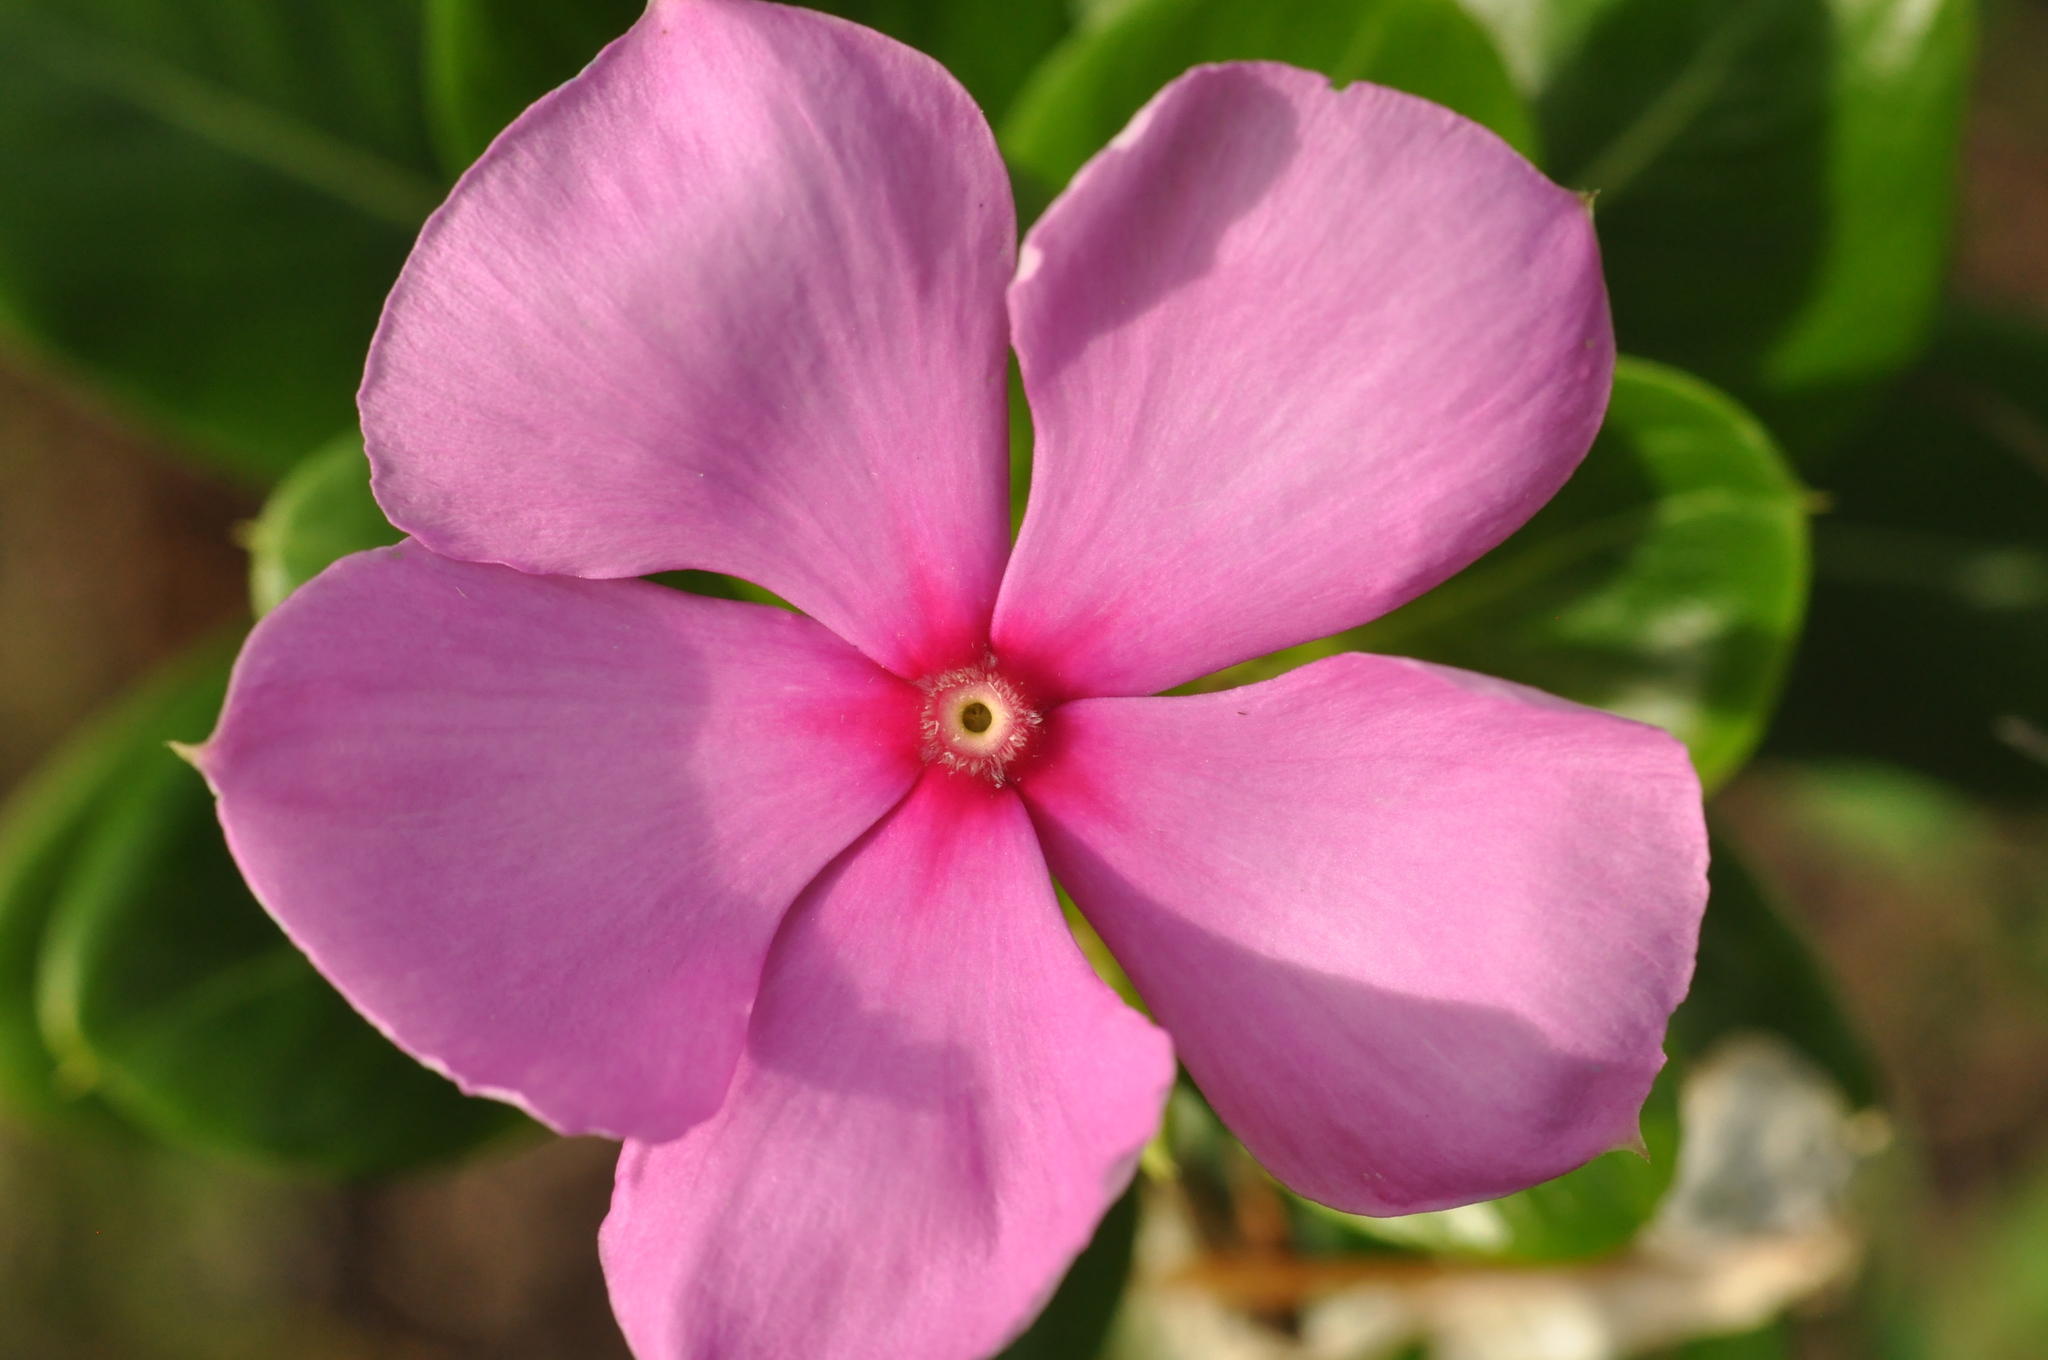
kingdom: Plantae
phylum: Tracheophyta
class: Magnoliopsida
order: Gentianales
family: Apocynaceae
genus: Catharanthus
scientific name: Catharanthus roseus
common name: Madagascar periwinkle
